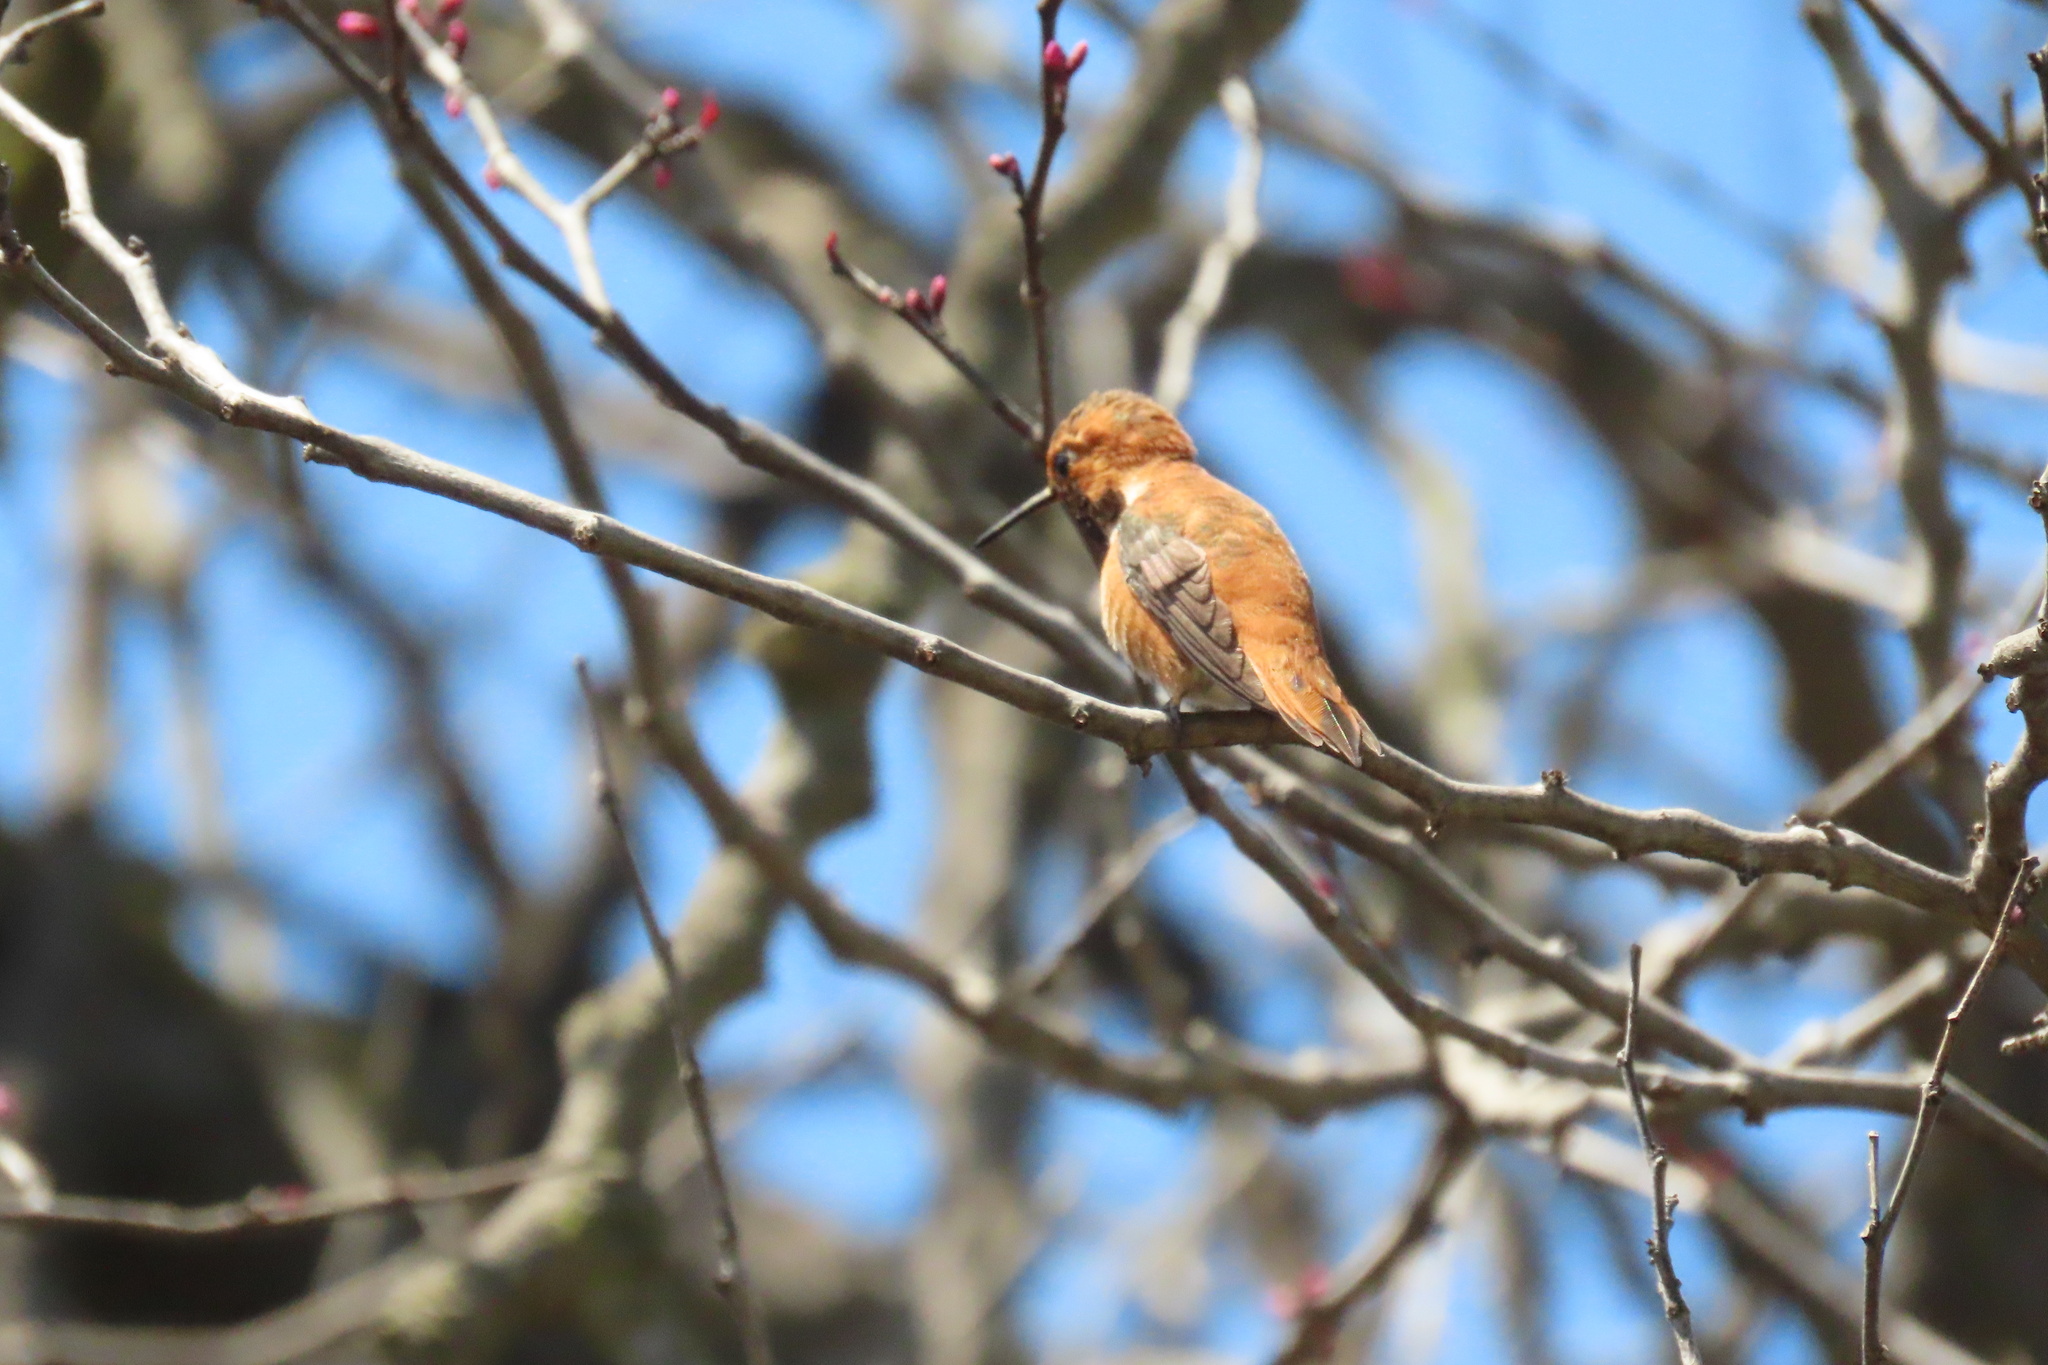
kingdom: Animalia
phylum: Chordata
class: Aves
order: Apodiformes
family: Trochilidae
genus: Selasphorus
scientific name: Selasphorus rufus
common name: Rufous hummingbird
